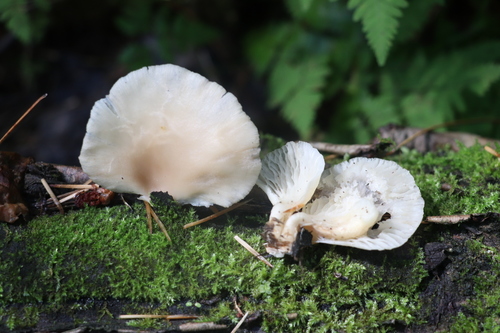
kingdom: Fungi
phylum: Basidiomycota
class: Agaricomycetes
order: Agaricales
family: Pleurotaceae
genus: Pleurotus
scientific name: Pleurotus pulmonarius
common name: Pale oyster
